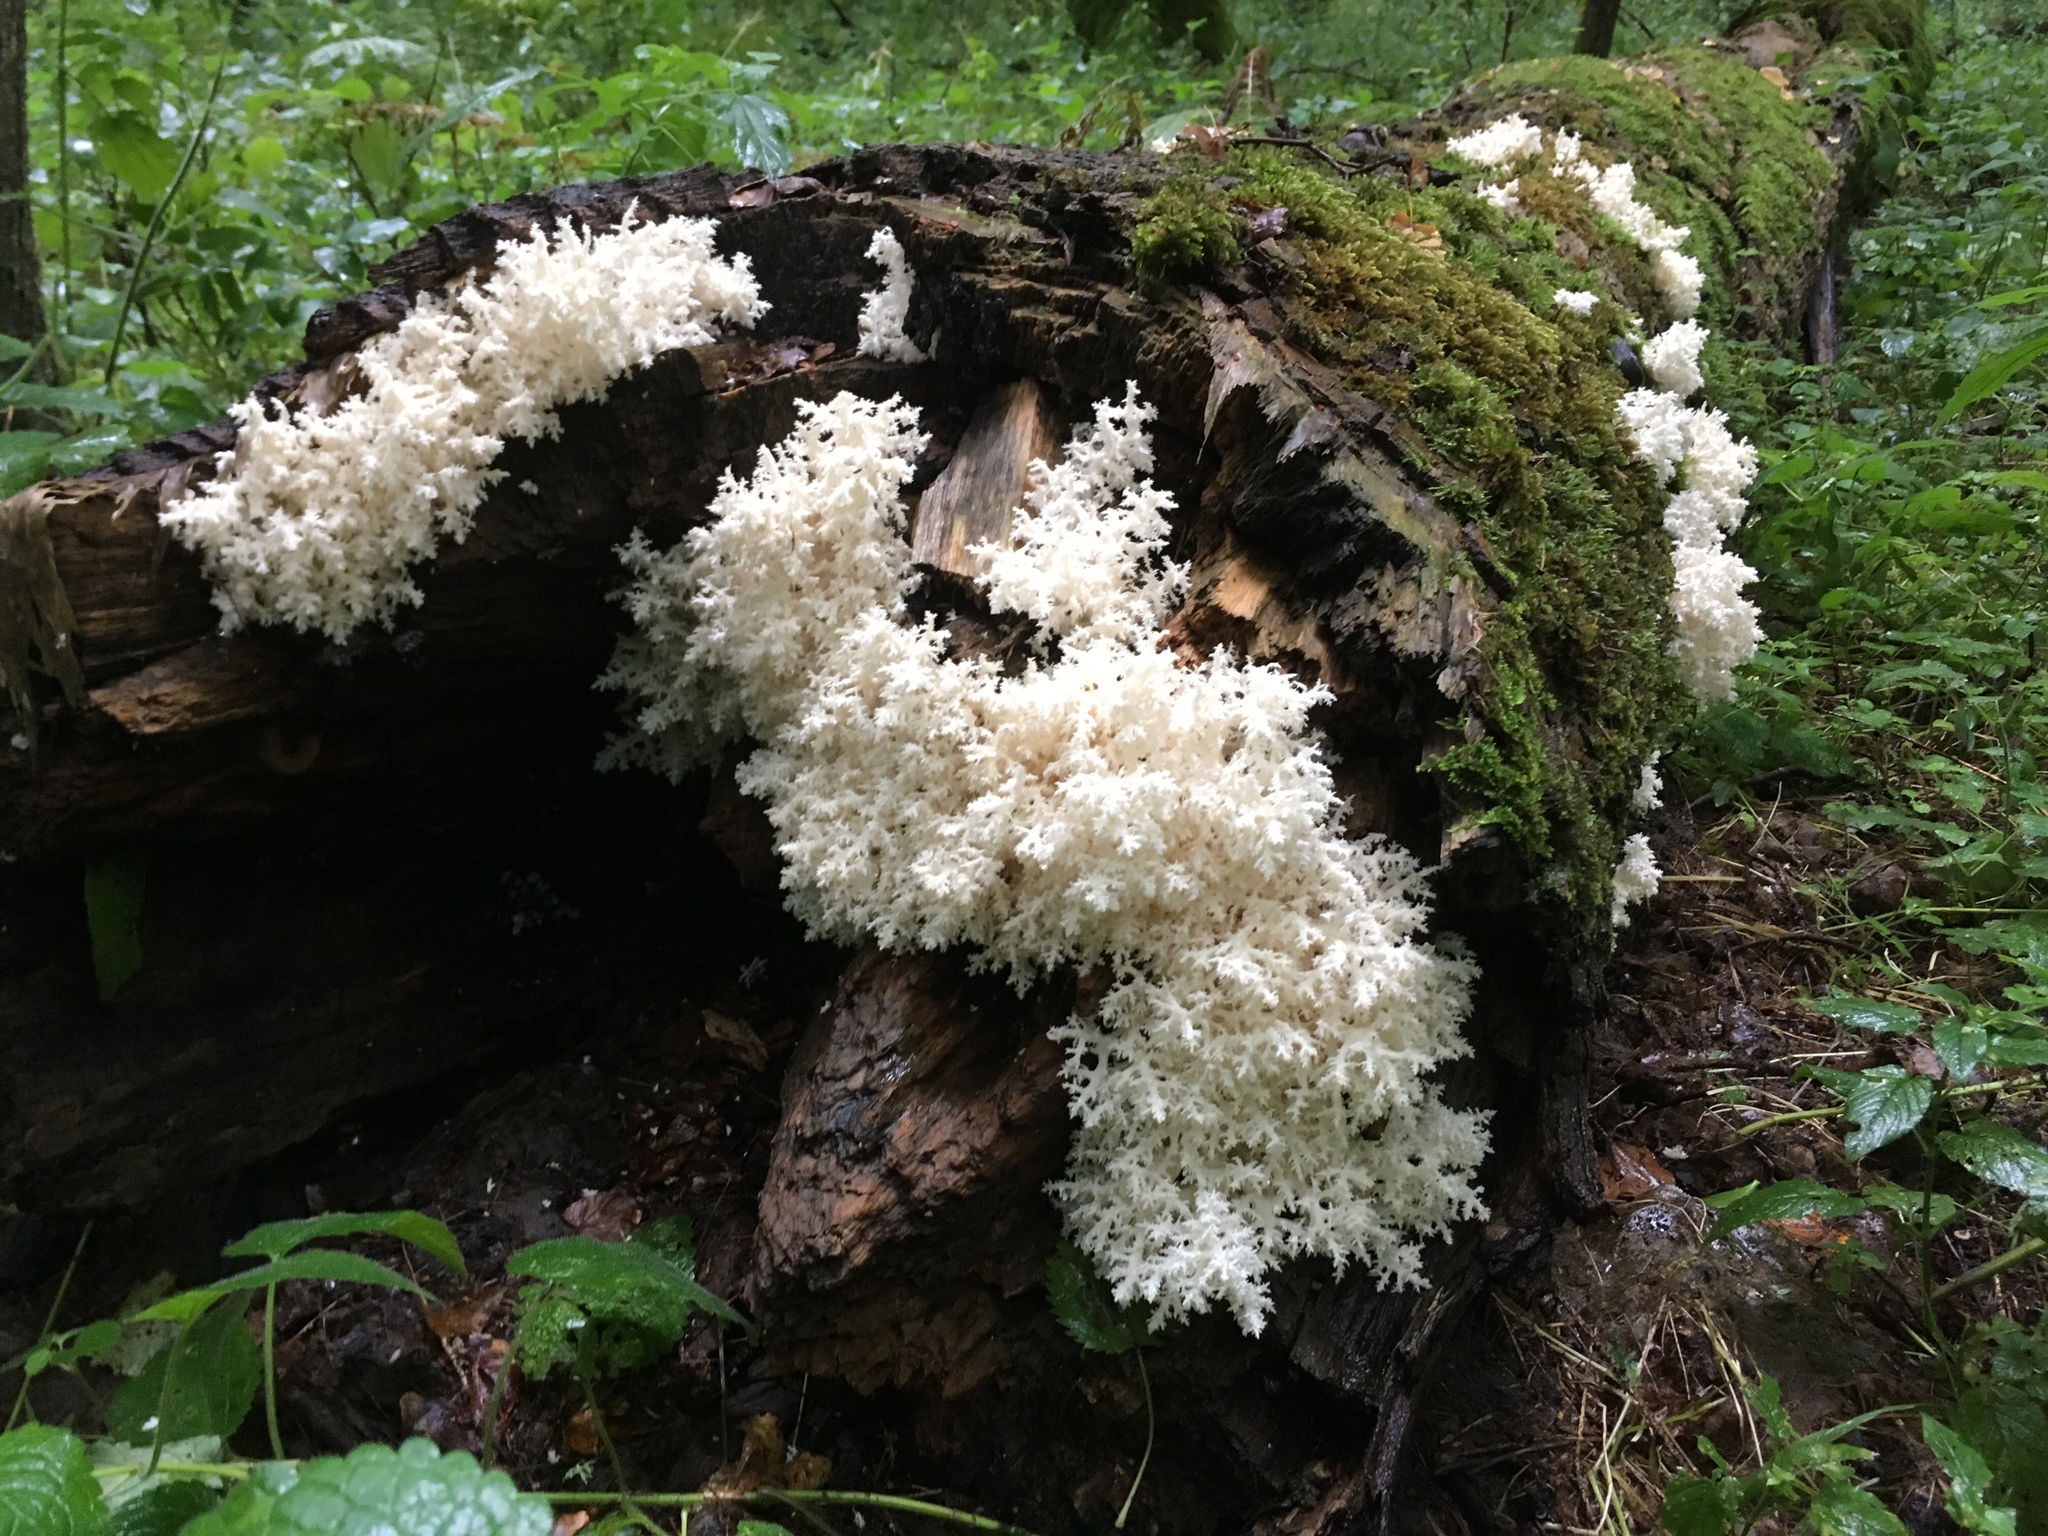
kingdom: Fungi
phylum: Basidiomycota
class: Agaricomycetes
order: Russulales
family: Hericiaceae
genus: Hericium
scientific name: Hericium coralloides
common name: Coral tooth
